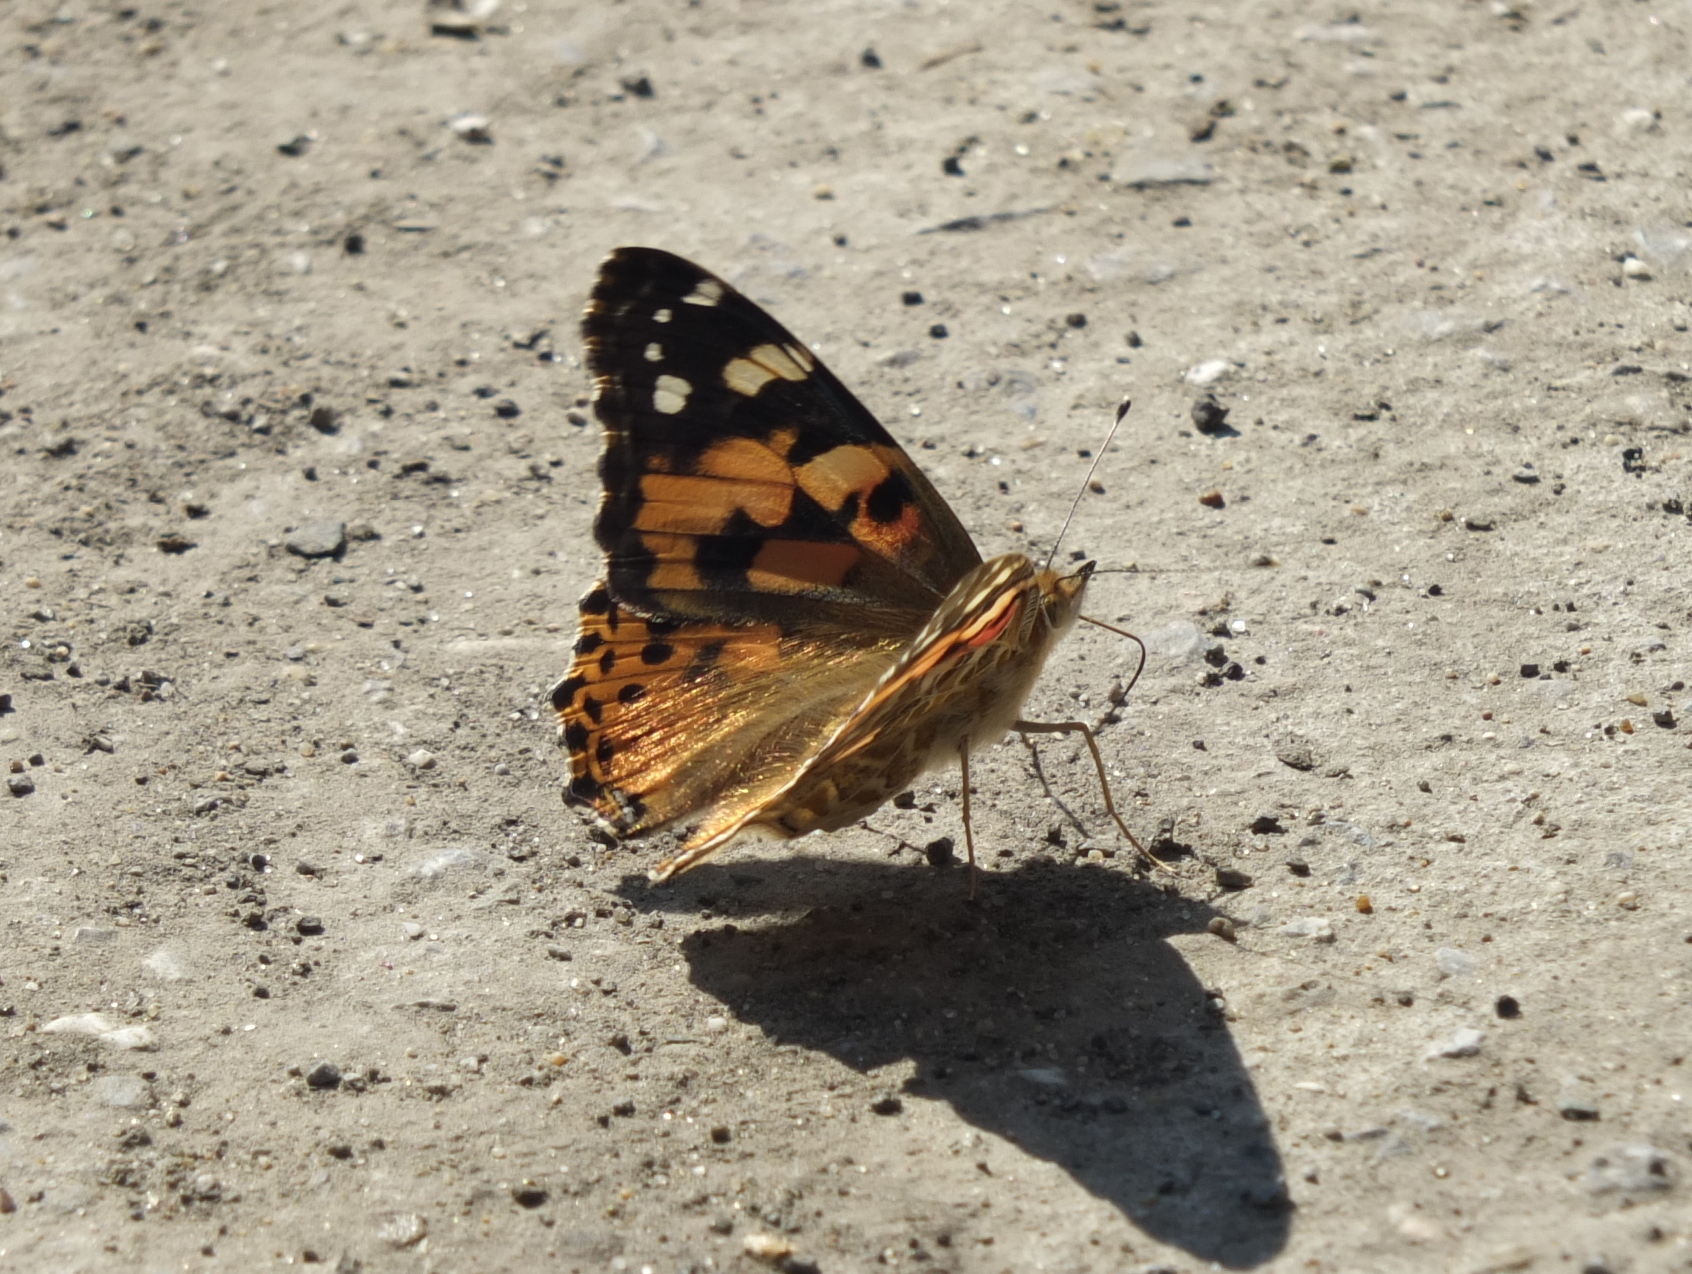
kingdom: Animalia
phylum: Arthropoda
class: Insecta
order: Lepidoptera
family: Nymphalidae
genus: Vanessa
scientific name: Vanessa cardui
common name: Painted lady
